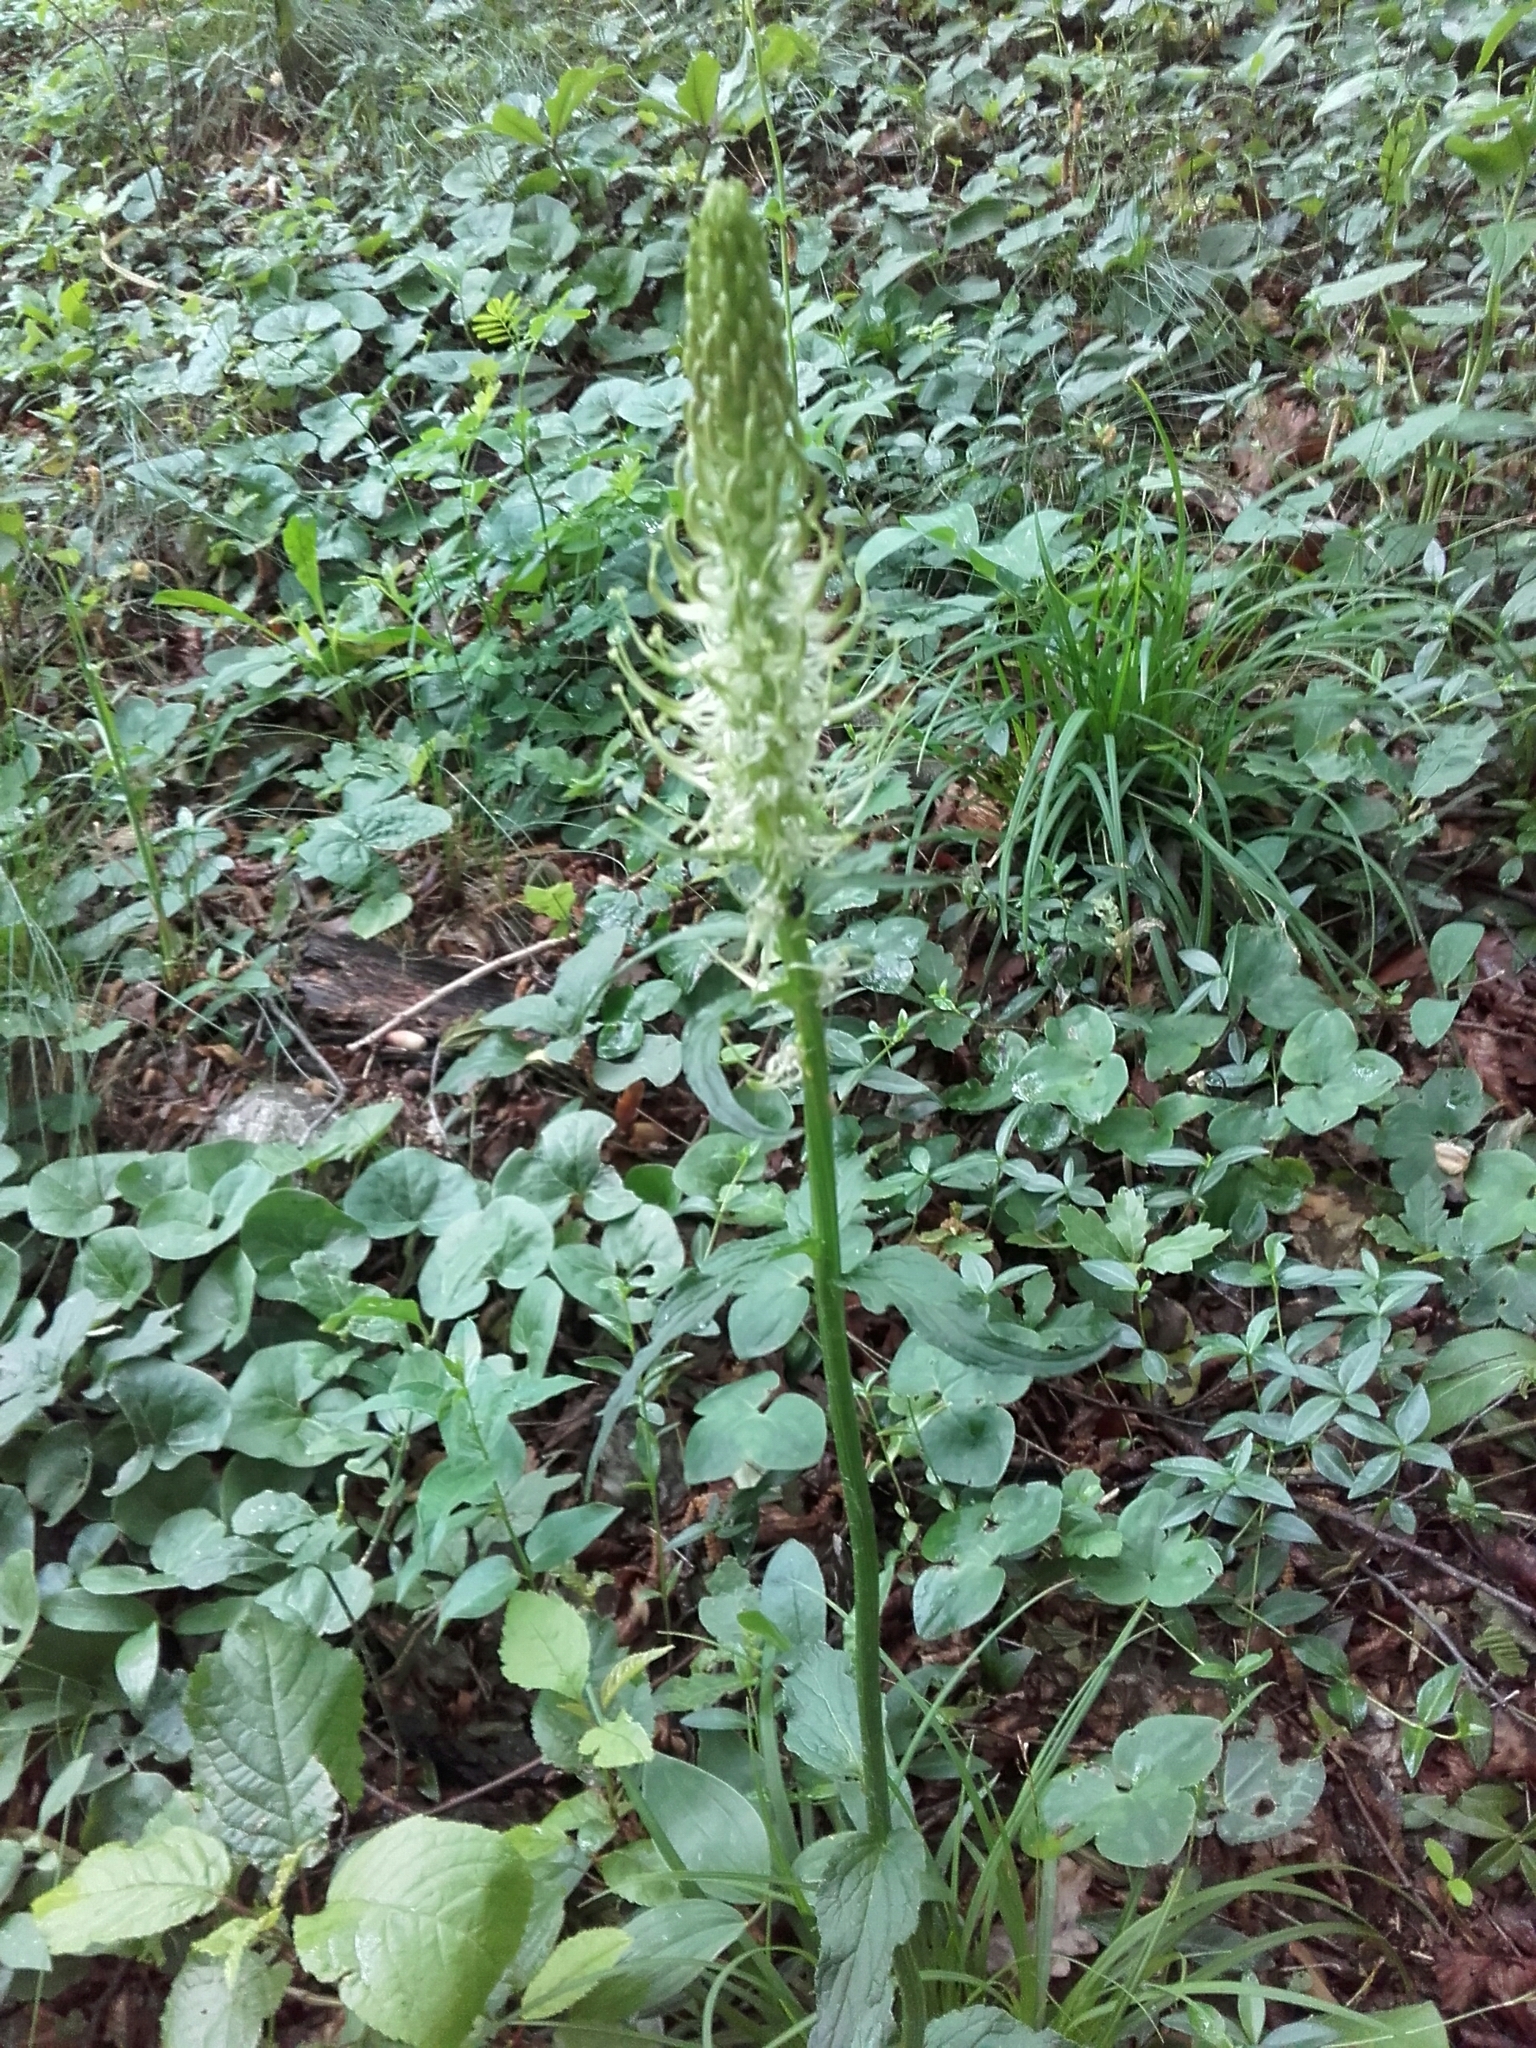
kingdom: Plantae
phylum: Tracheophyta
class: Magnoliopsida
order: Asterales
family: Campanulaceae
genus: Phyteuma
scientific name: Phyteuma spicatum
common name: Spiked rampion
